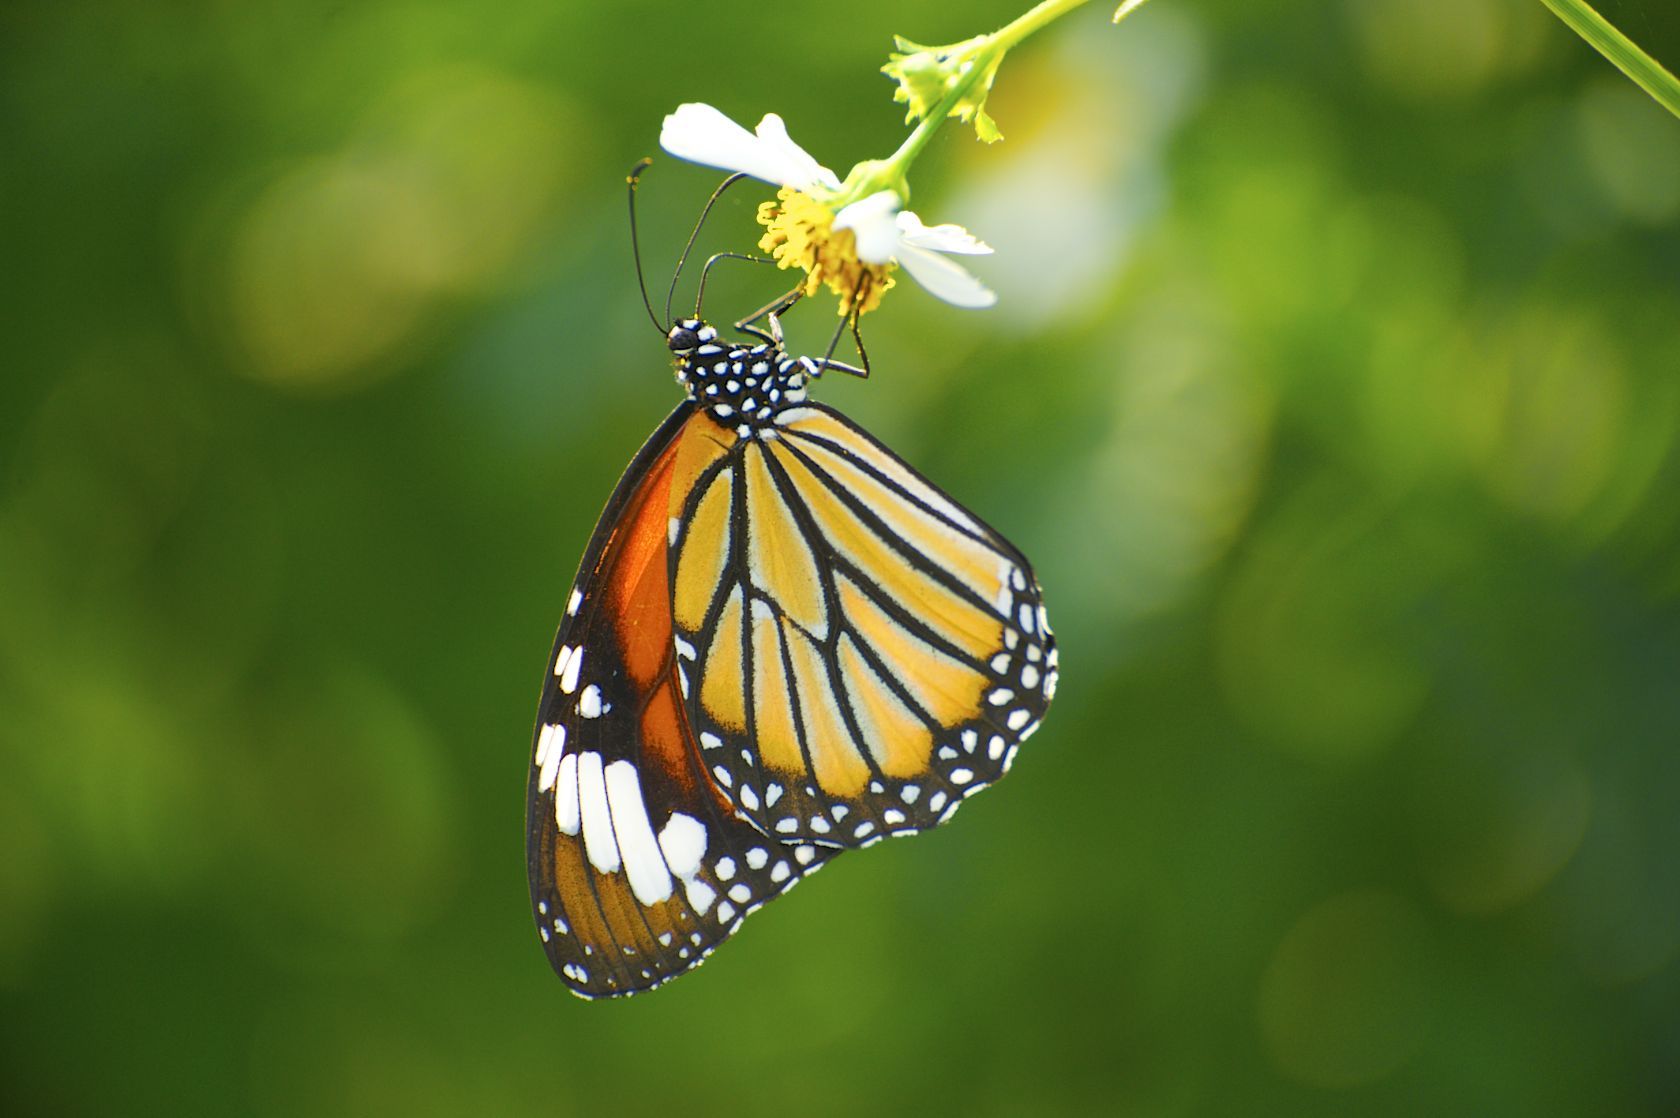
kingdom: Animalia
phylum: Arthropoda
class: Insecta
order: Lepidoptera
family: Nymphalidae
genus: Danaus
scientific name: Danaus genutia
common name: Common tiger butterfly
